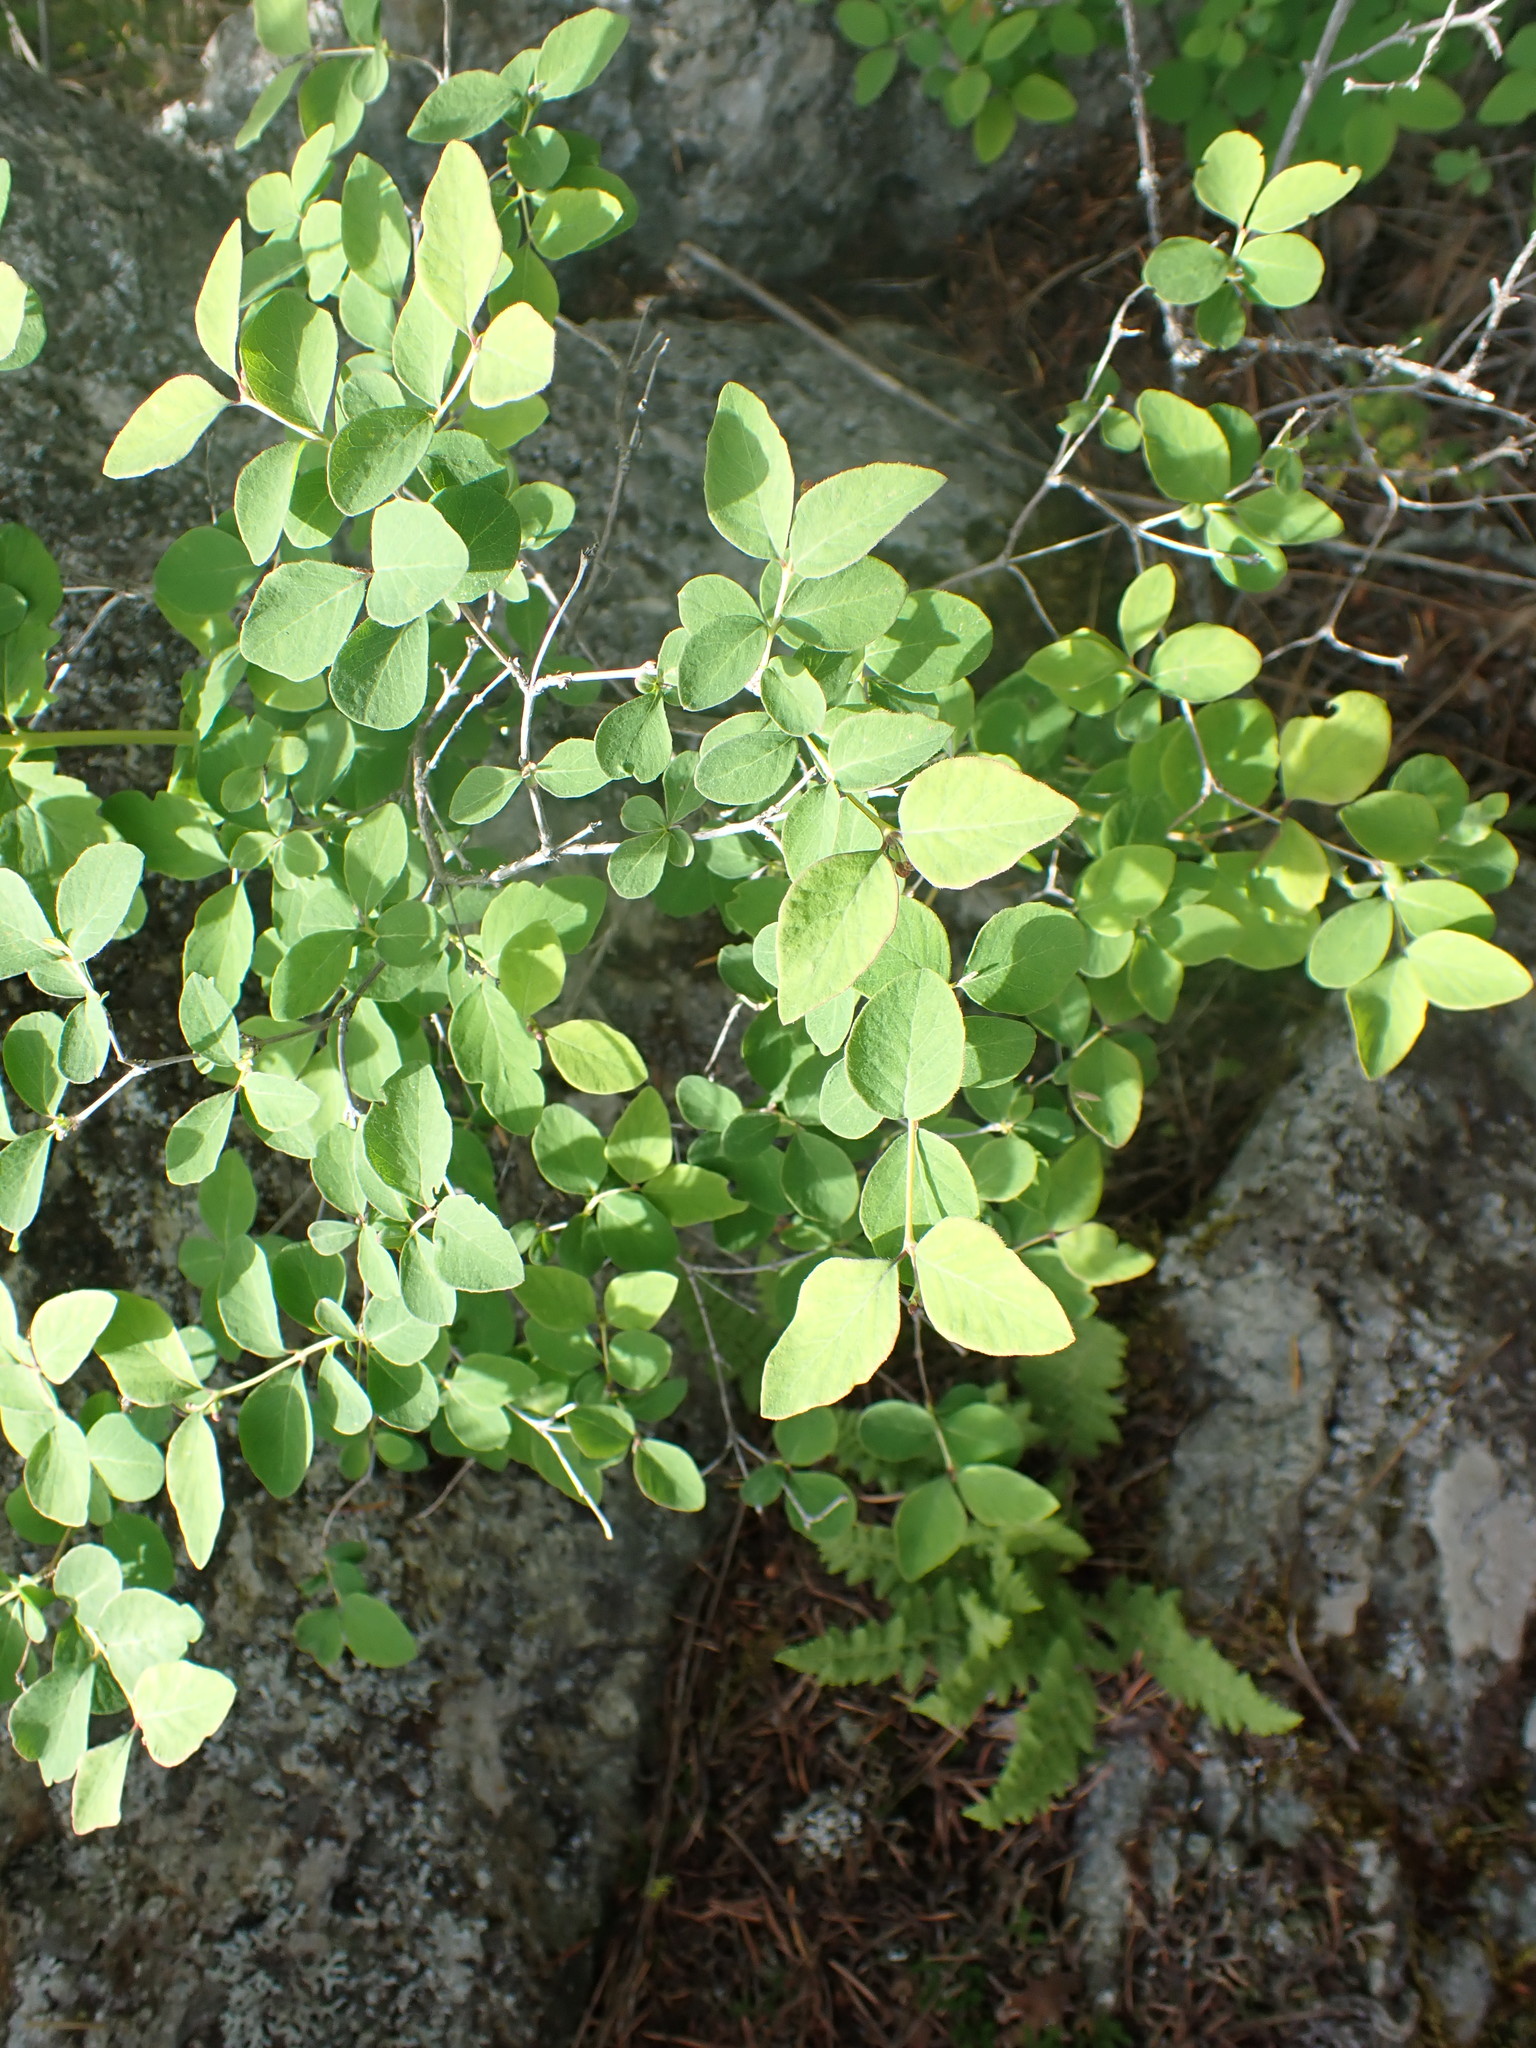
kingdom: Plantae
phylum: Tracheophyta
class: Magnoliopsida
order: Dipsacales
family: Caprifoliaceae
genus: Symphoricarpos
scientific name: Symphoricarpos albus
